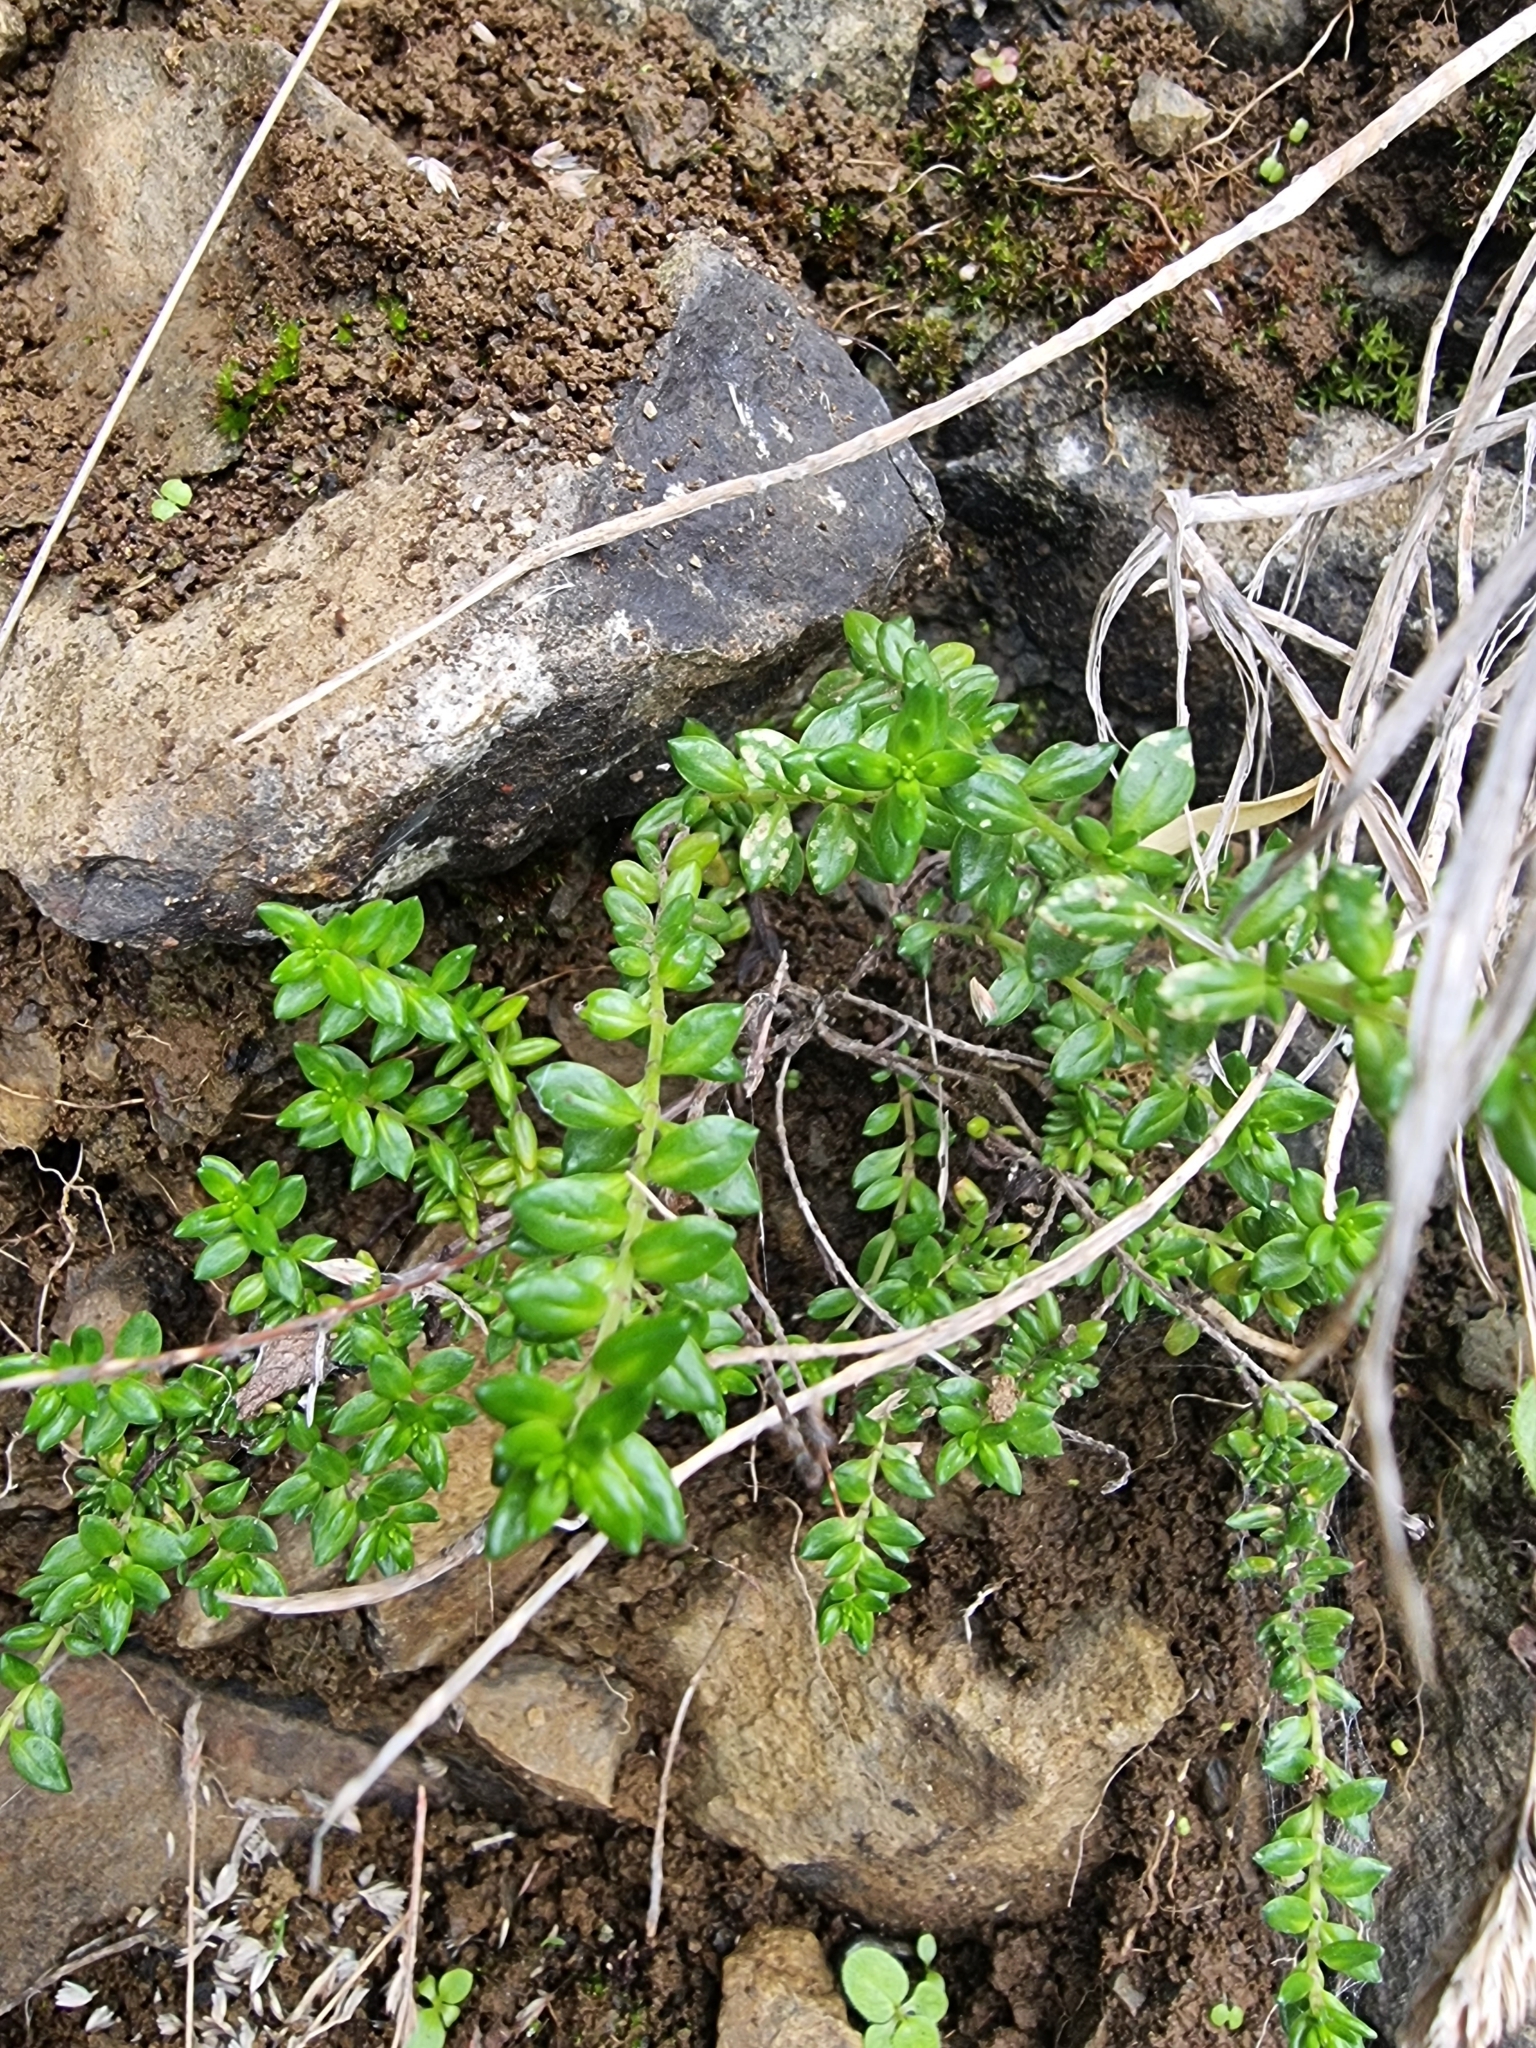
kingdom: Plantae
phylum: Tracheophyta
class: Magnoliopsida
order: Lamiales
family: Lamiaceae
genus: Micromeria
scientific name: Micromeria maderensis
